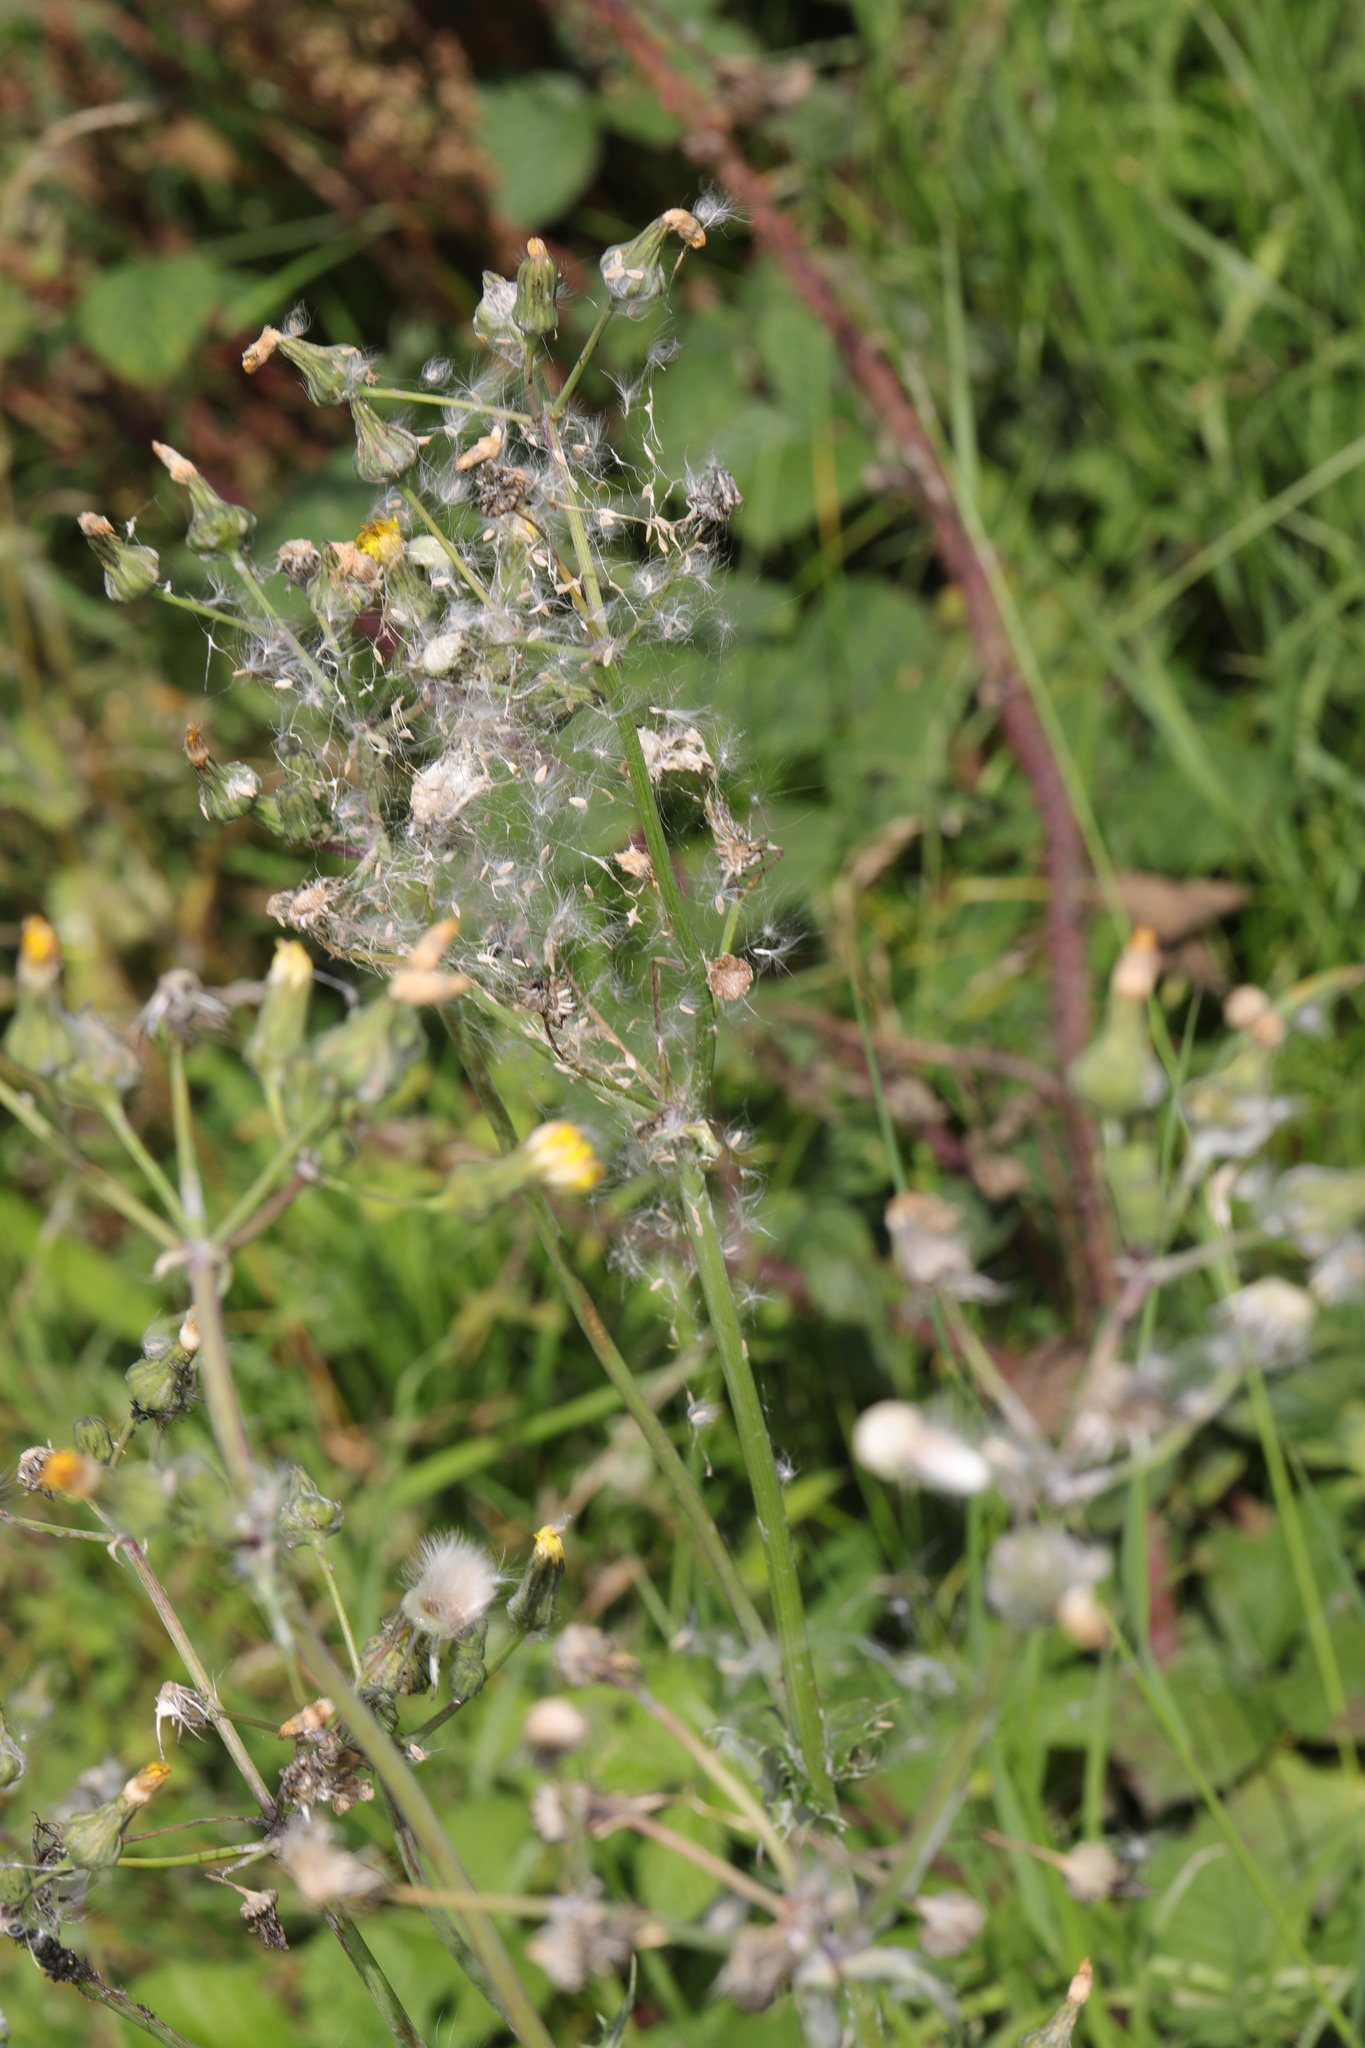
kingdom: Plantae
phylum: Tracheophyta
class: Magnoliopsida
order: Asterales
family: Asteraceae
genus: Sonchus
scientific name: Sonchus asper
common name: Prickly sow-thistle
